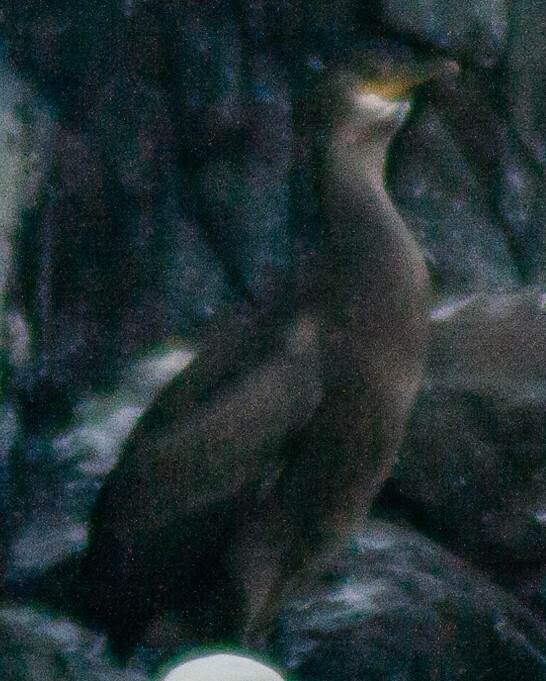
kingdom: Animalia
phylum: Chordata
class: Aves
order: Suliformes
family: Phalacrocoracidae
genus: Phalacrocorax
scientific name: Phalacrocorax aristotelis
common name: European shag
